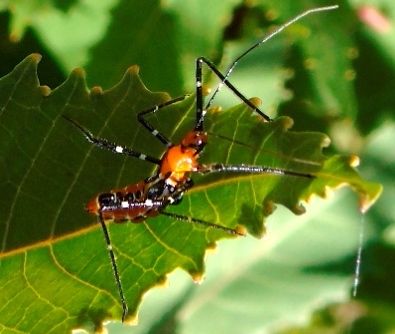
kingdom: Animalia
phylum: Arthropoda
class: Insecta
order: Hemiptera
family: Reduviidae
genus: Zelus
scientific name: Zelus
